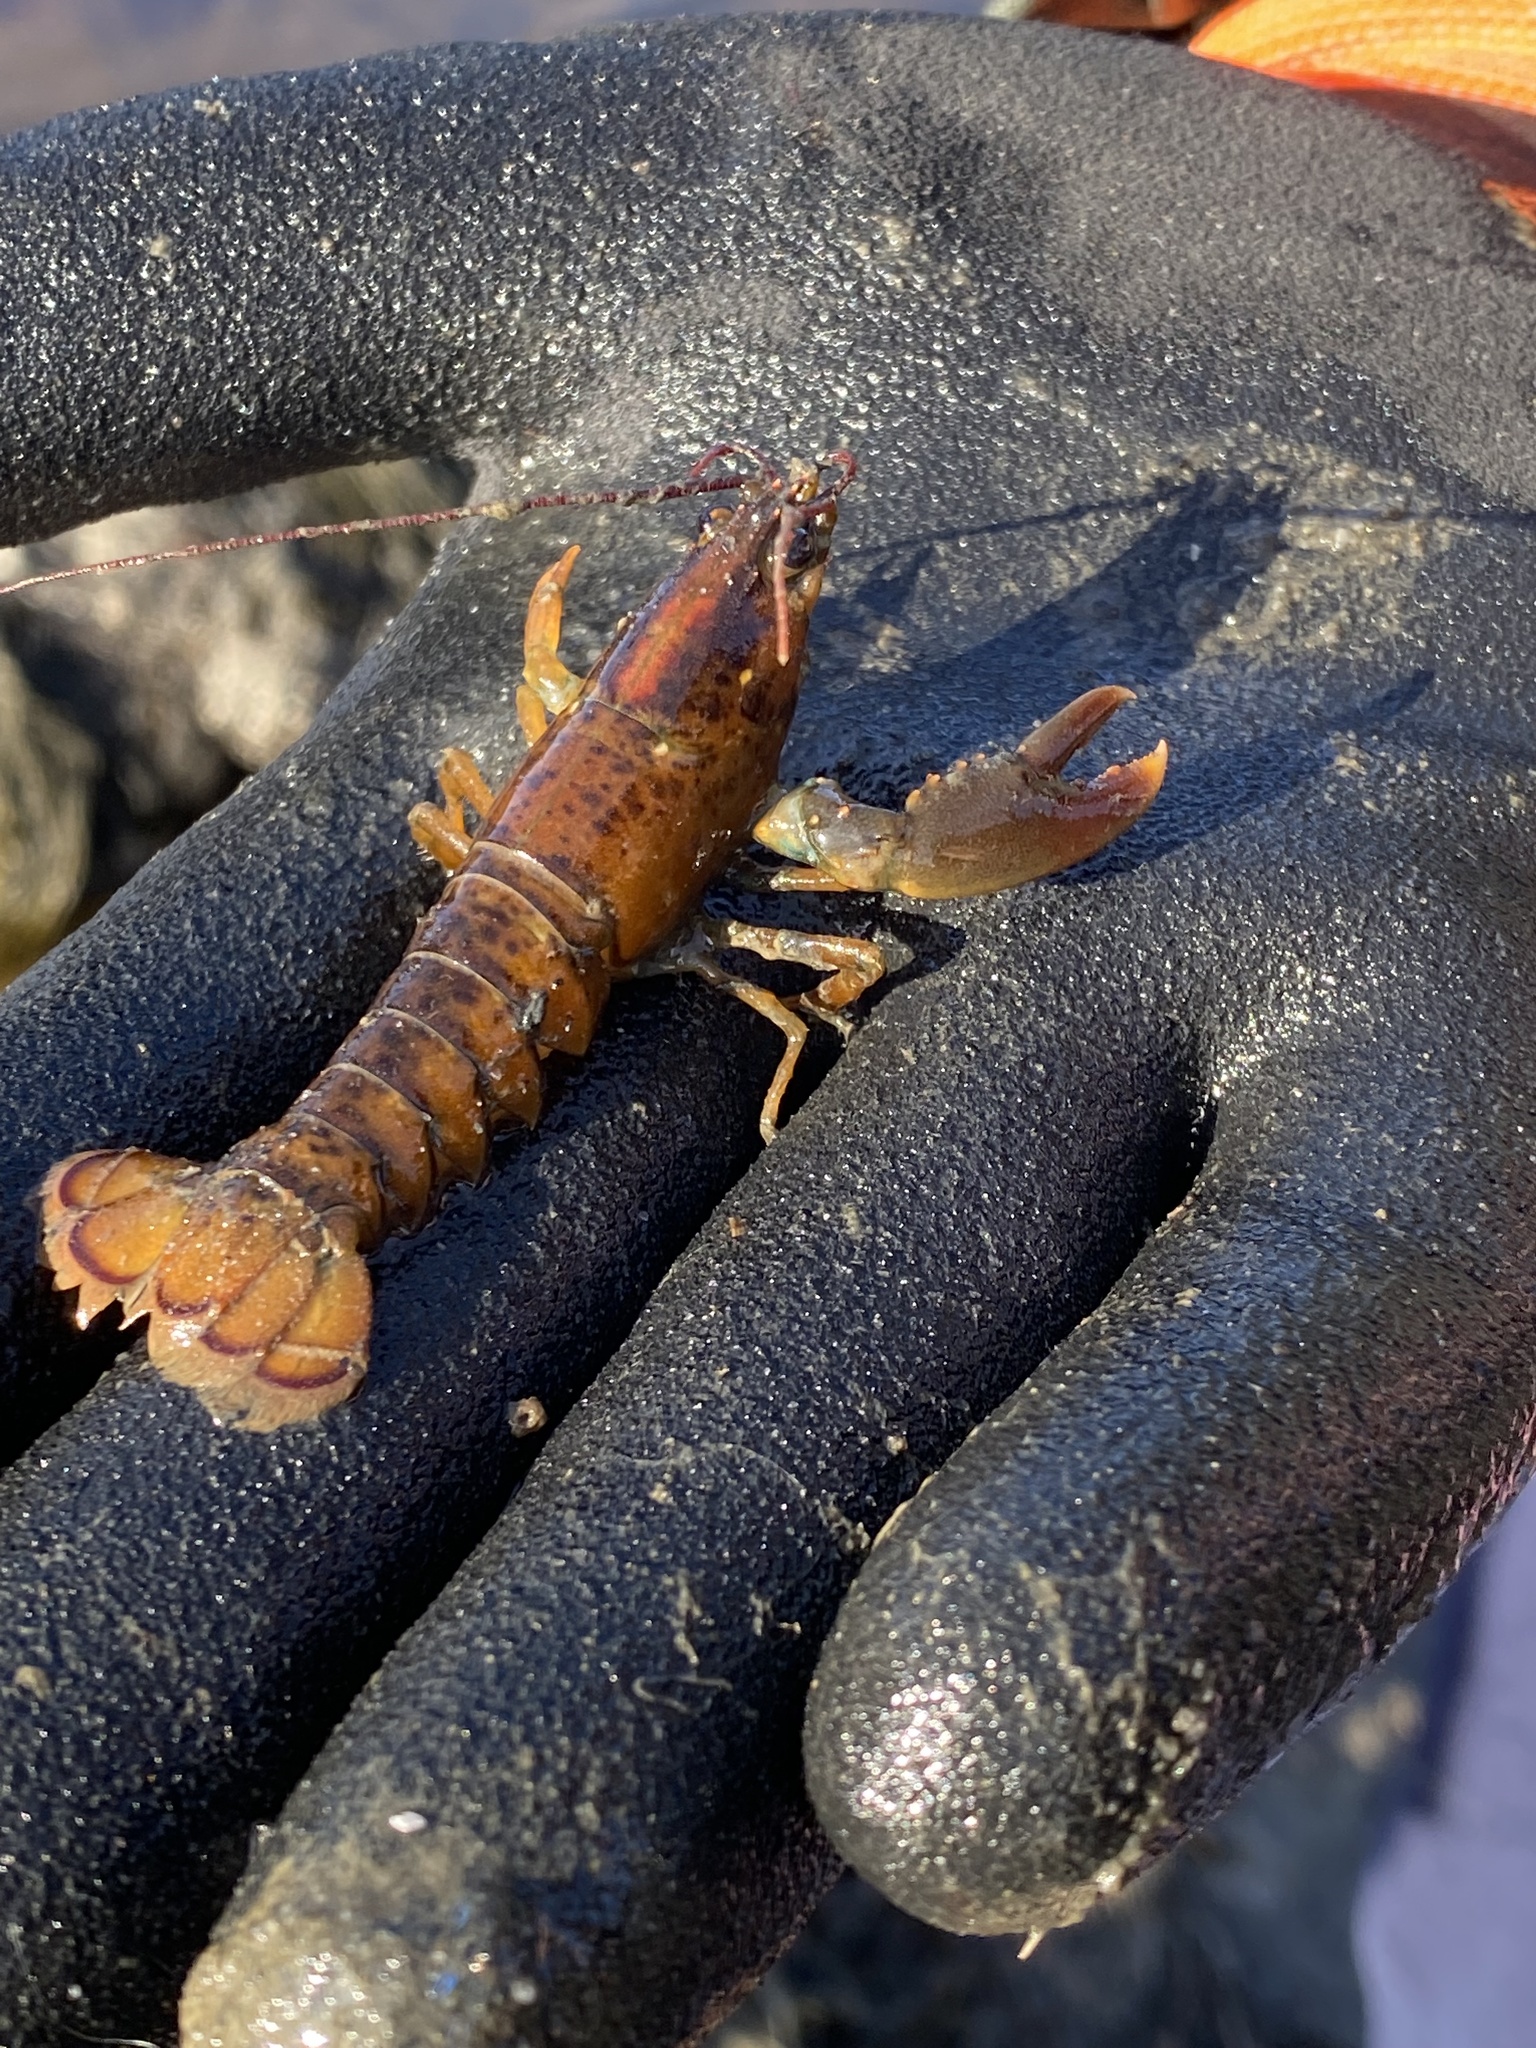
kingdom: Animalia
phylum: Arthropoda
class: Malacostraca
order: Decapoda
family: Nephropidae
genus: Homarus
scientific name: Homarus americanus
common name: American lobster
